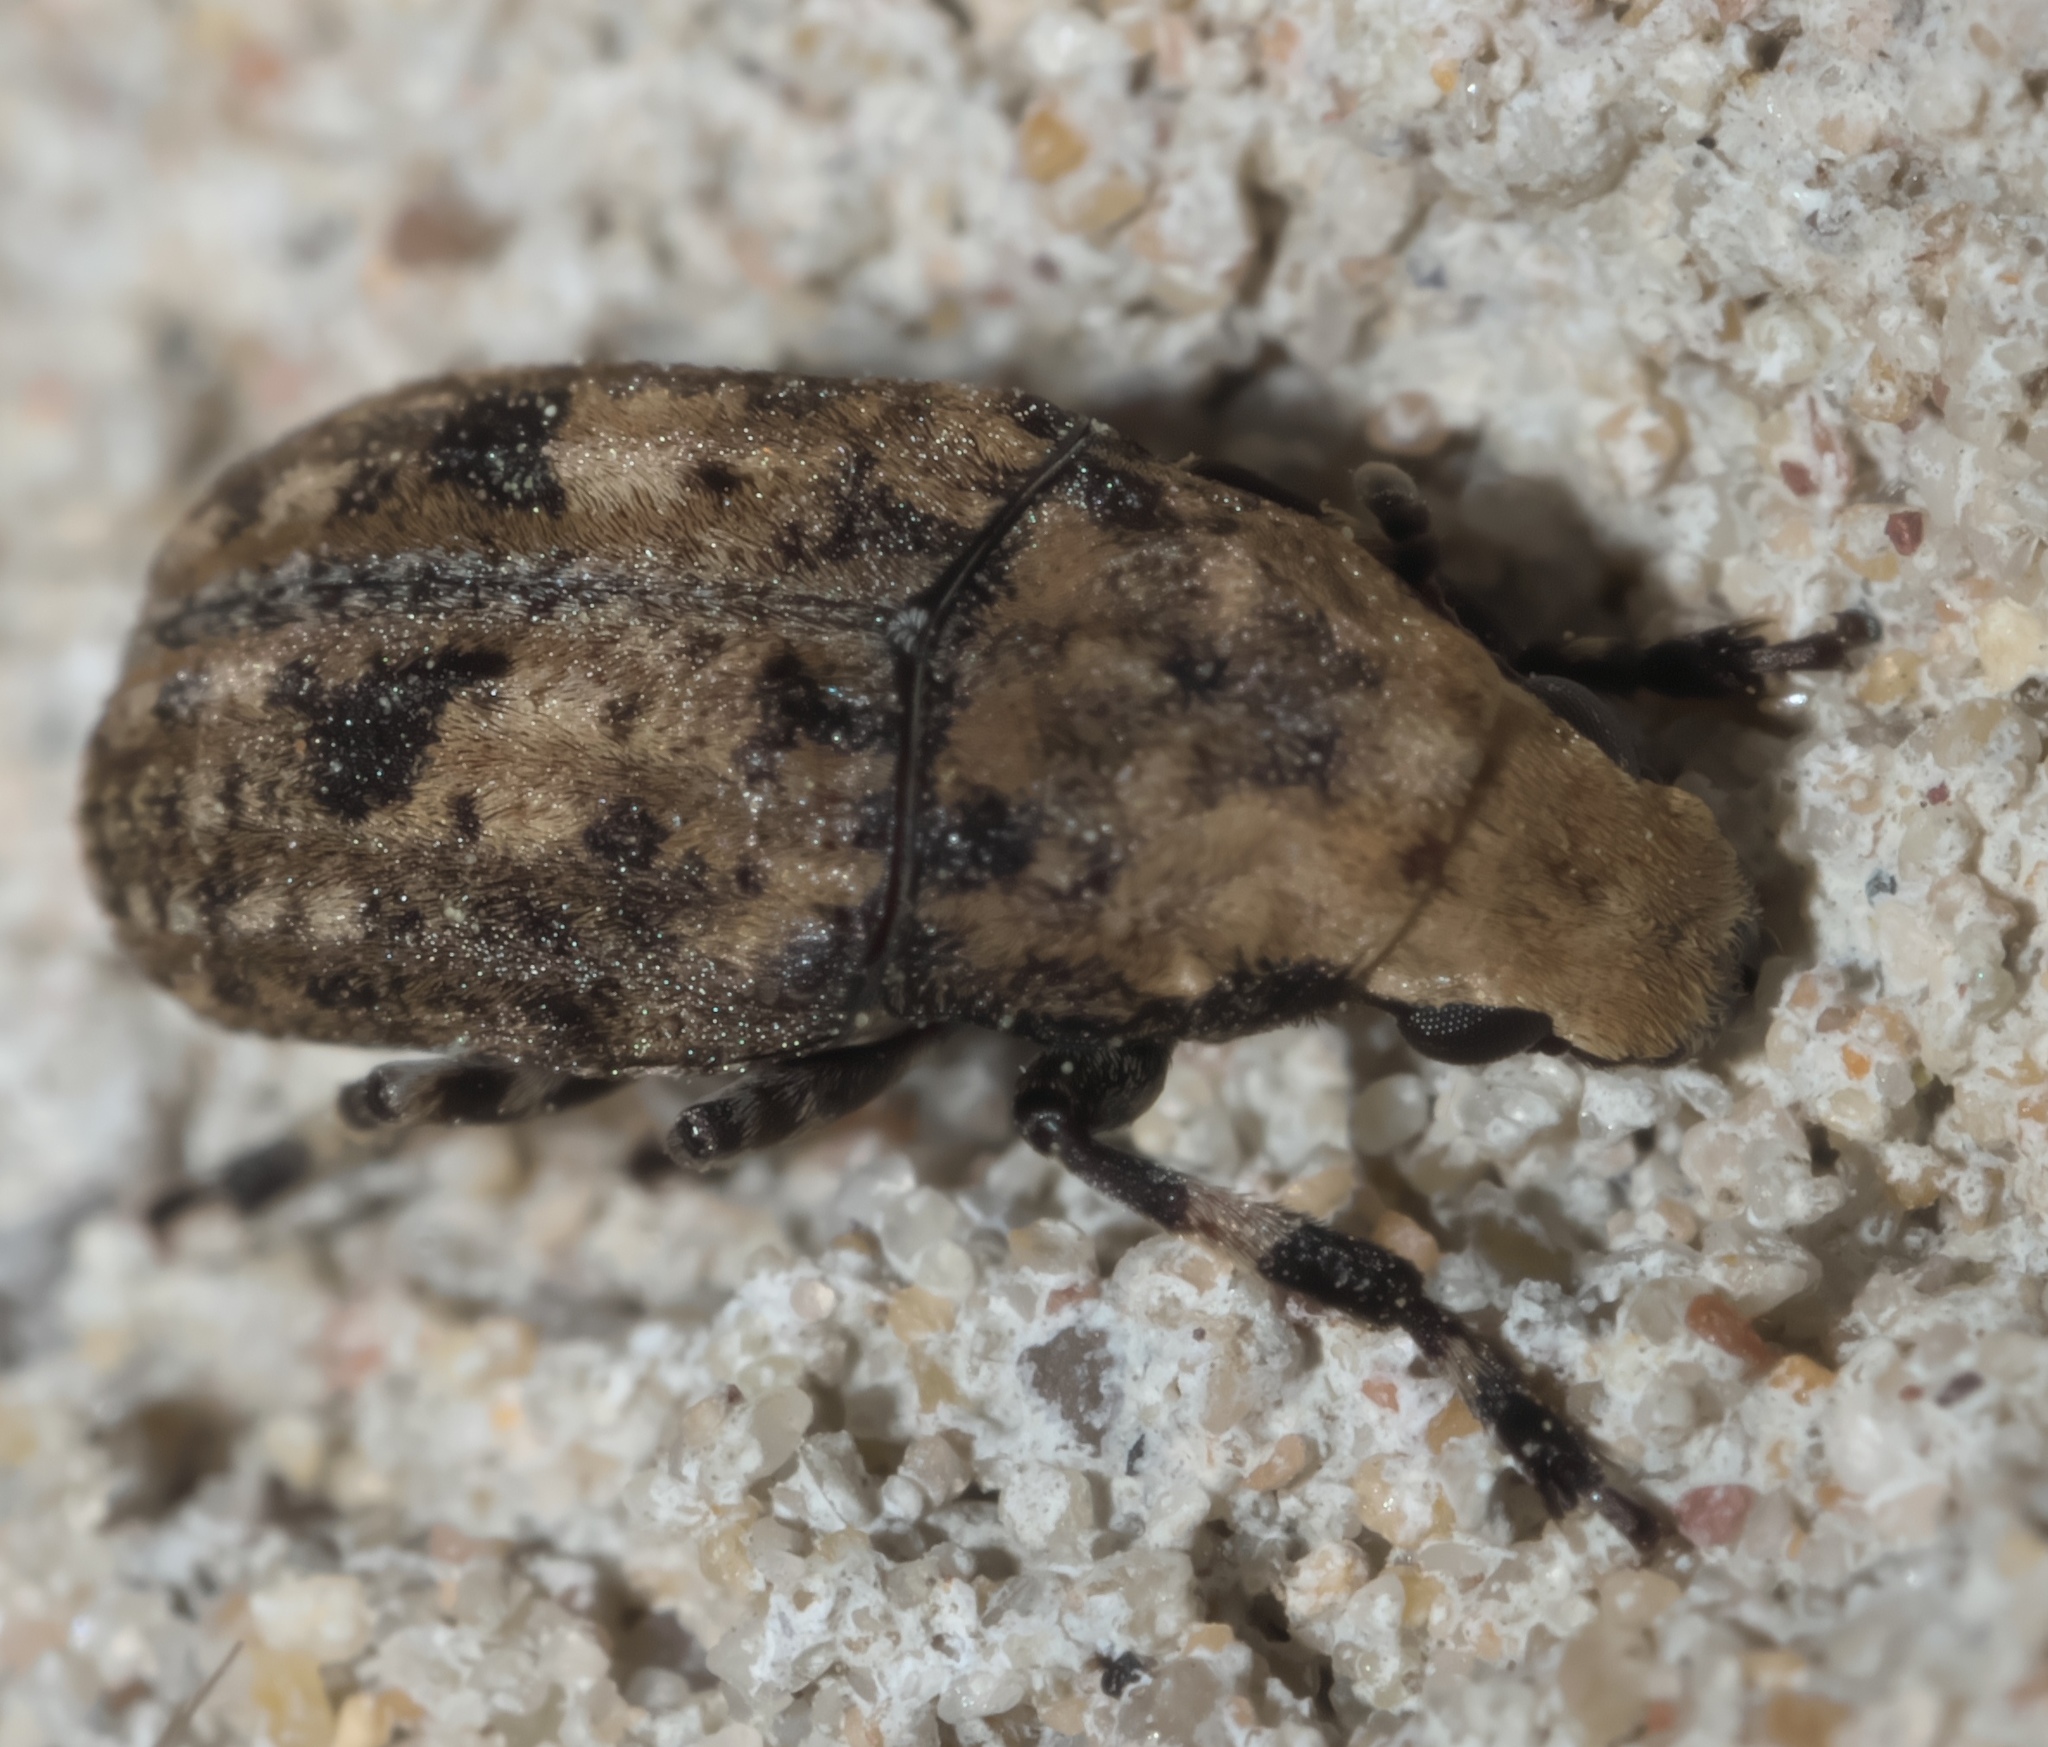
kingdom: Animalia
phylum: Arthropoda
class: Insecta
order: Coleoptera
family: Anthribidae
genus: Euparius
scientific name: Euparius marmoreus
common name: Marbled fungus weevil
